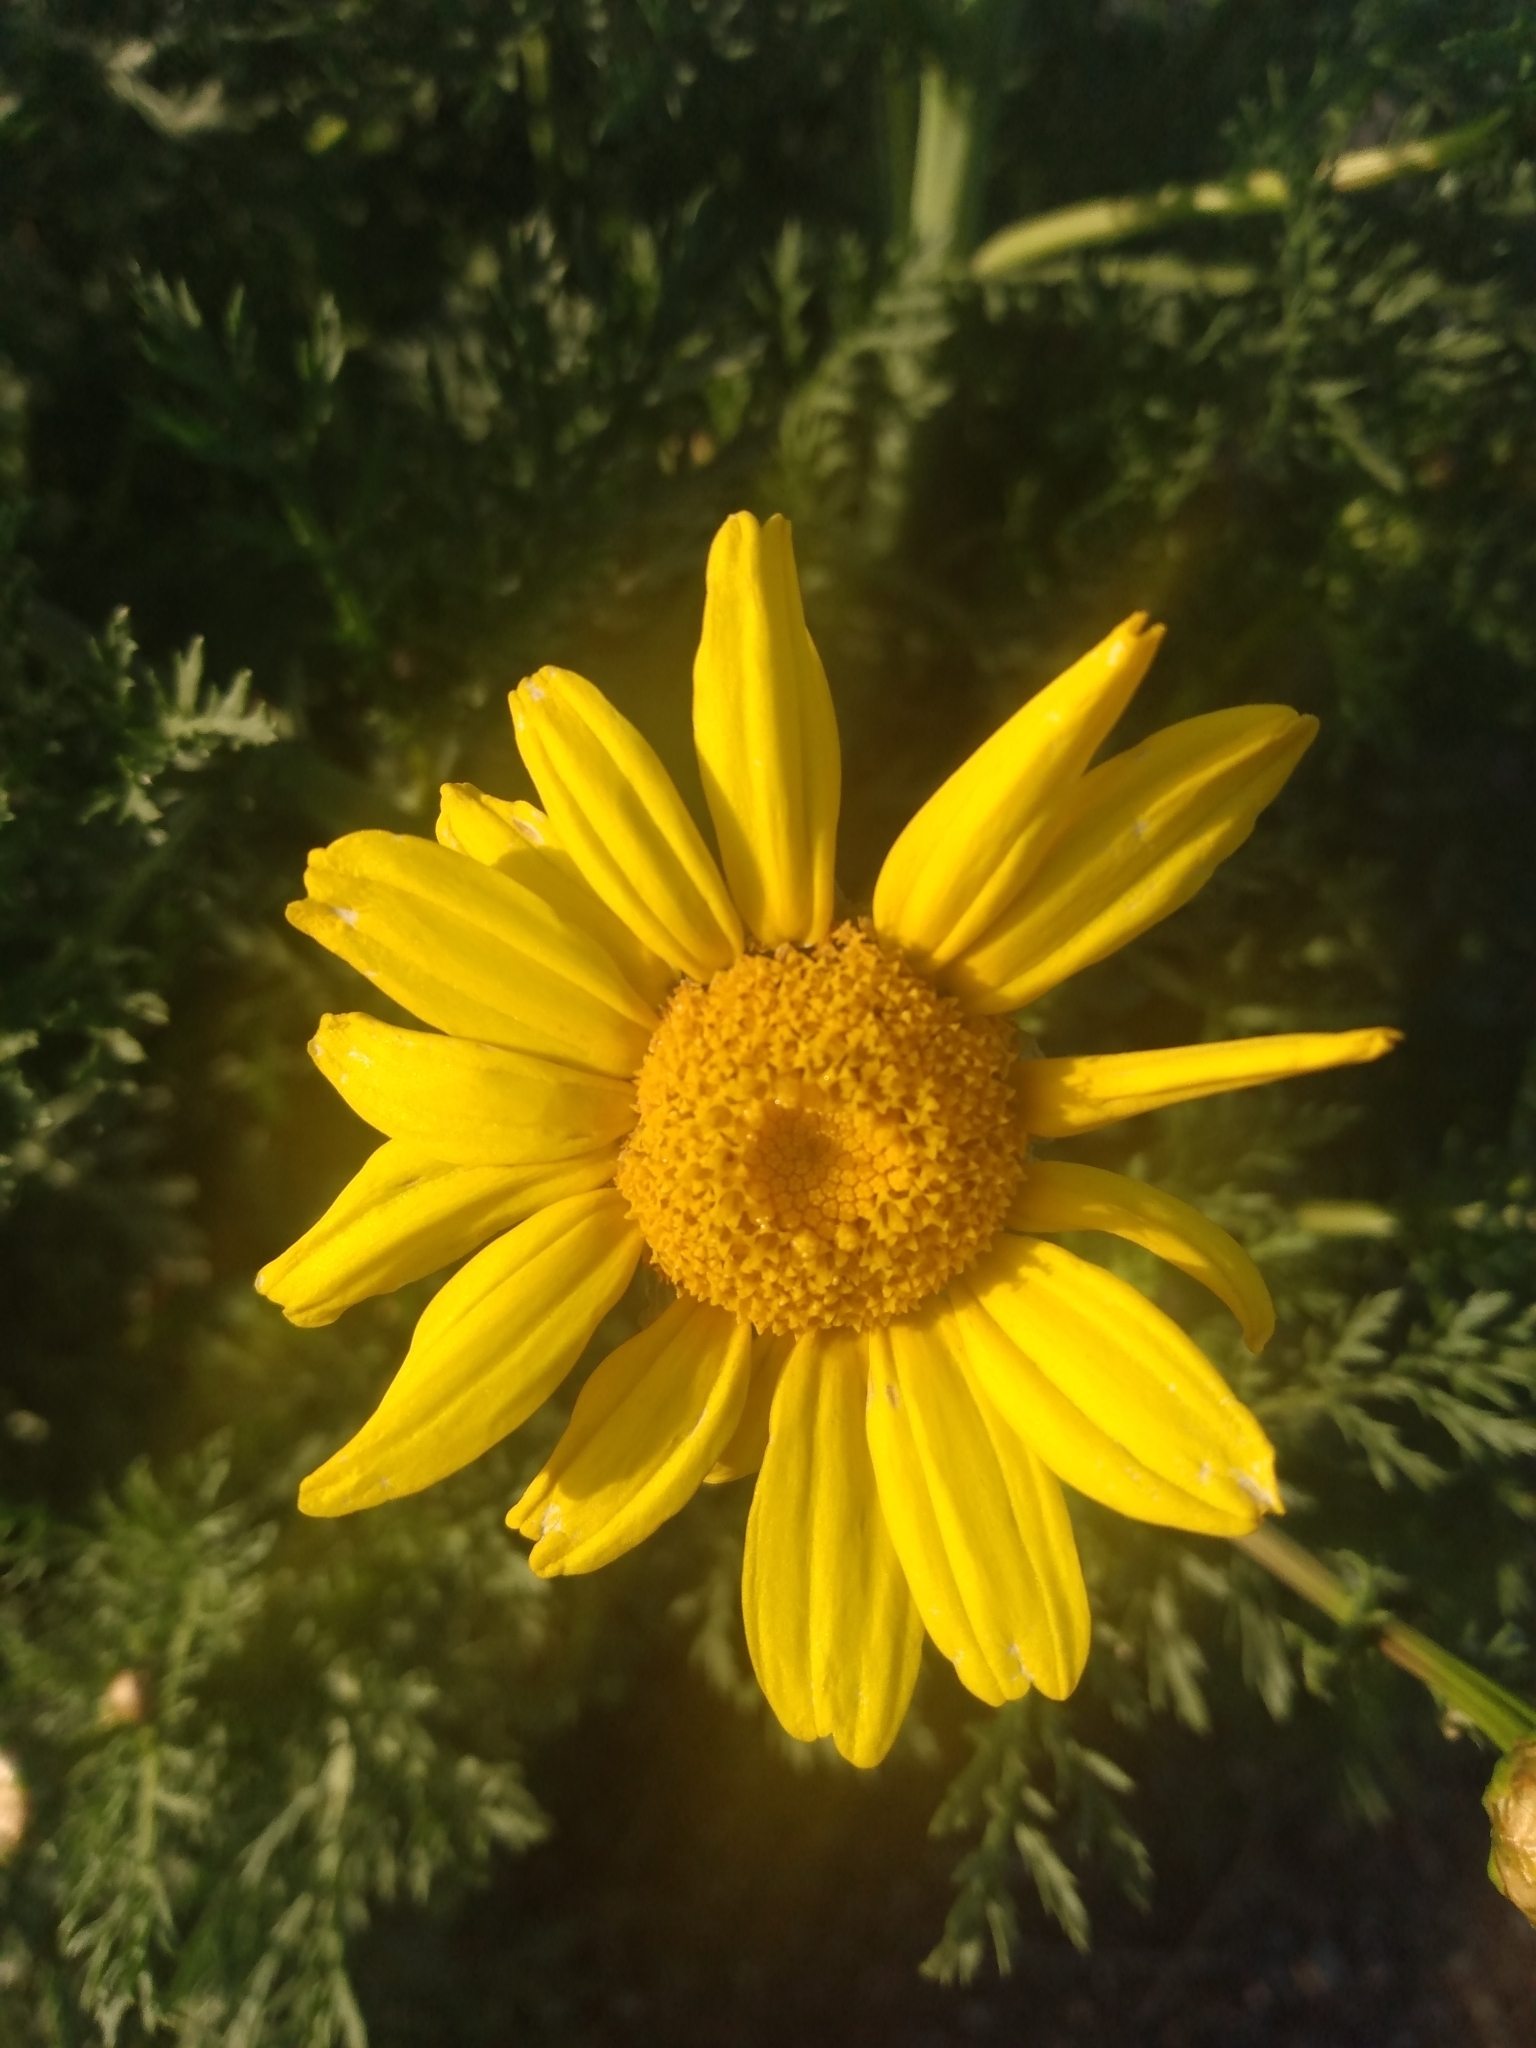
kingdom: Plantae
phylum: Tracheophyta
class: Magnoliopsida
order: Asterales
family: Asteraceae
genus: Glebionis
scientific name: Glebionis coronaria
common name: Crowndaisy
